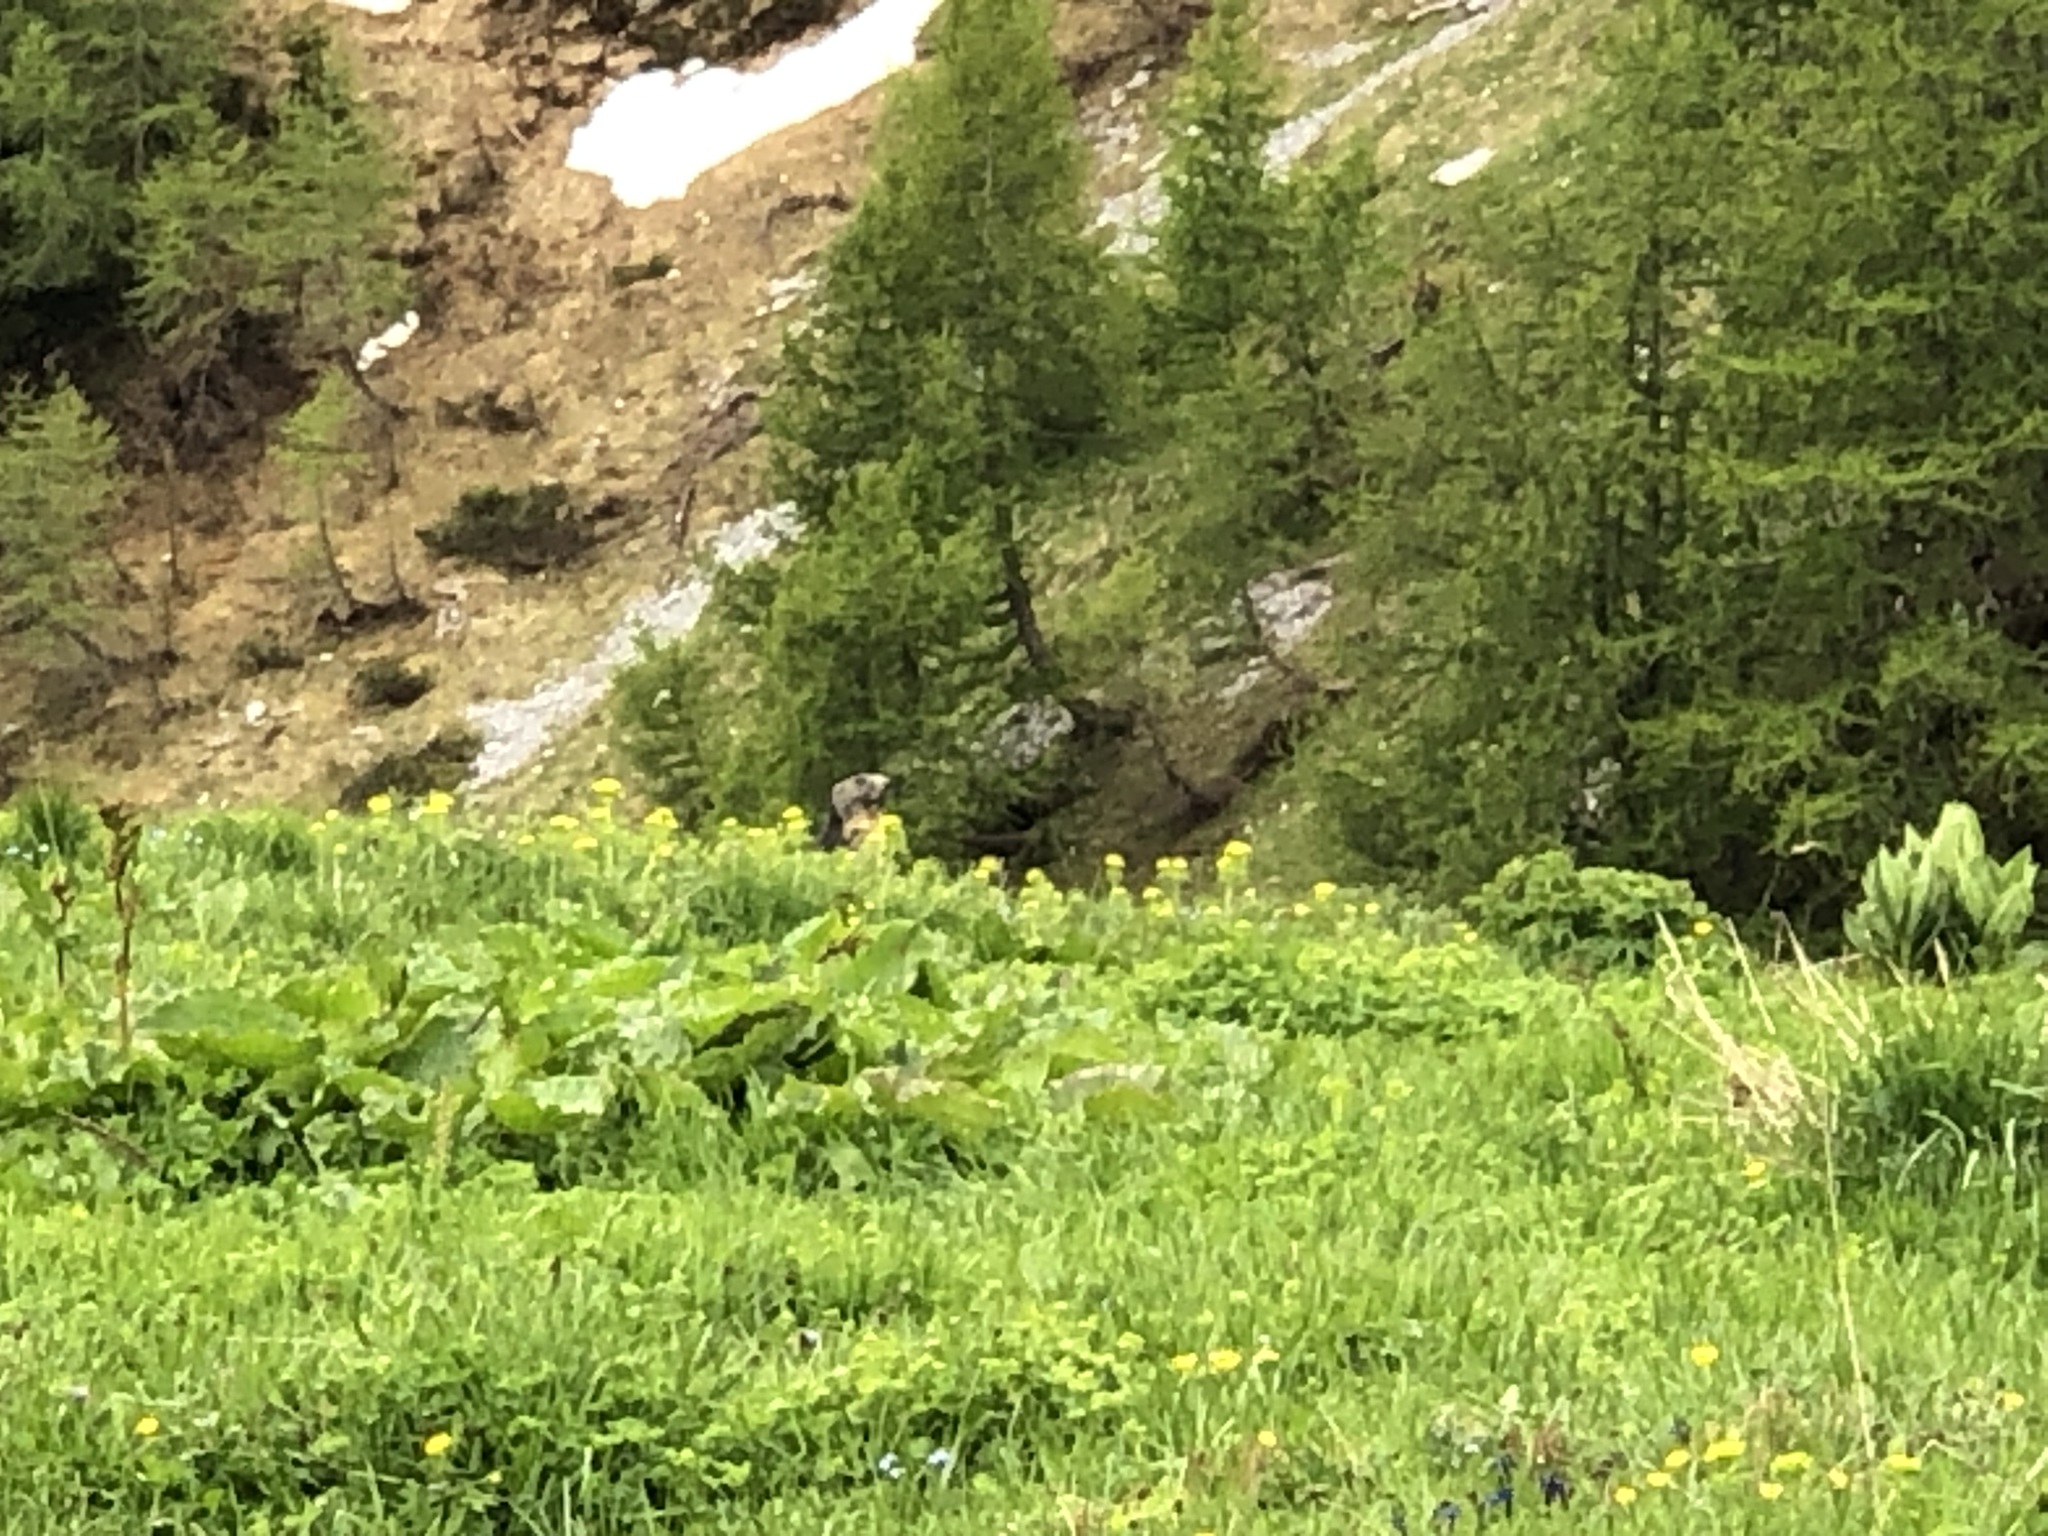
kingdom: Animalia
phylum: Chordata
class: Mammalia
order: Rodentia
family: Sciuridae
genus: Marmota
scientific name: Marmota marmota
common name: Alpine marmot
